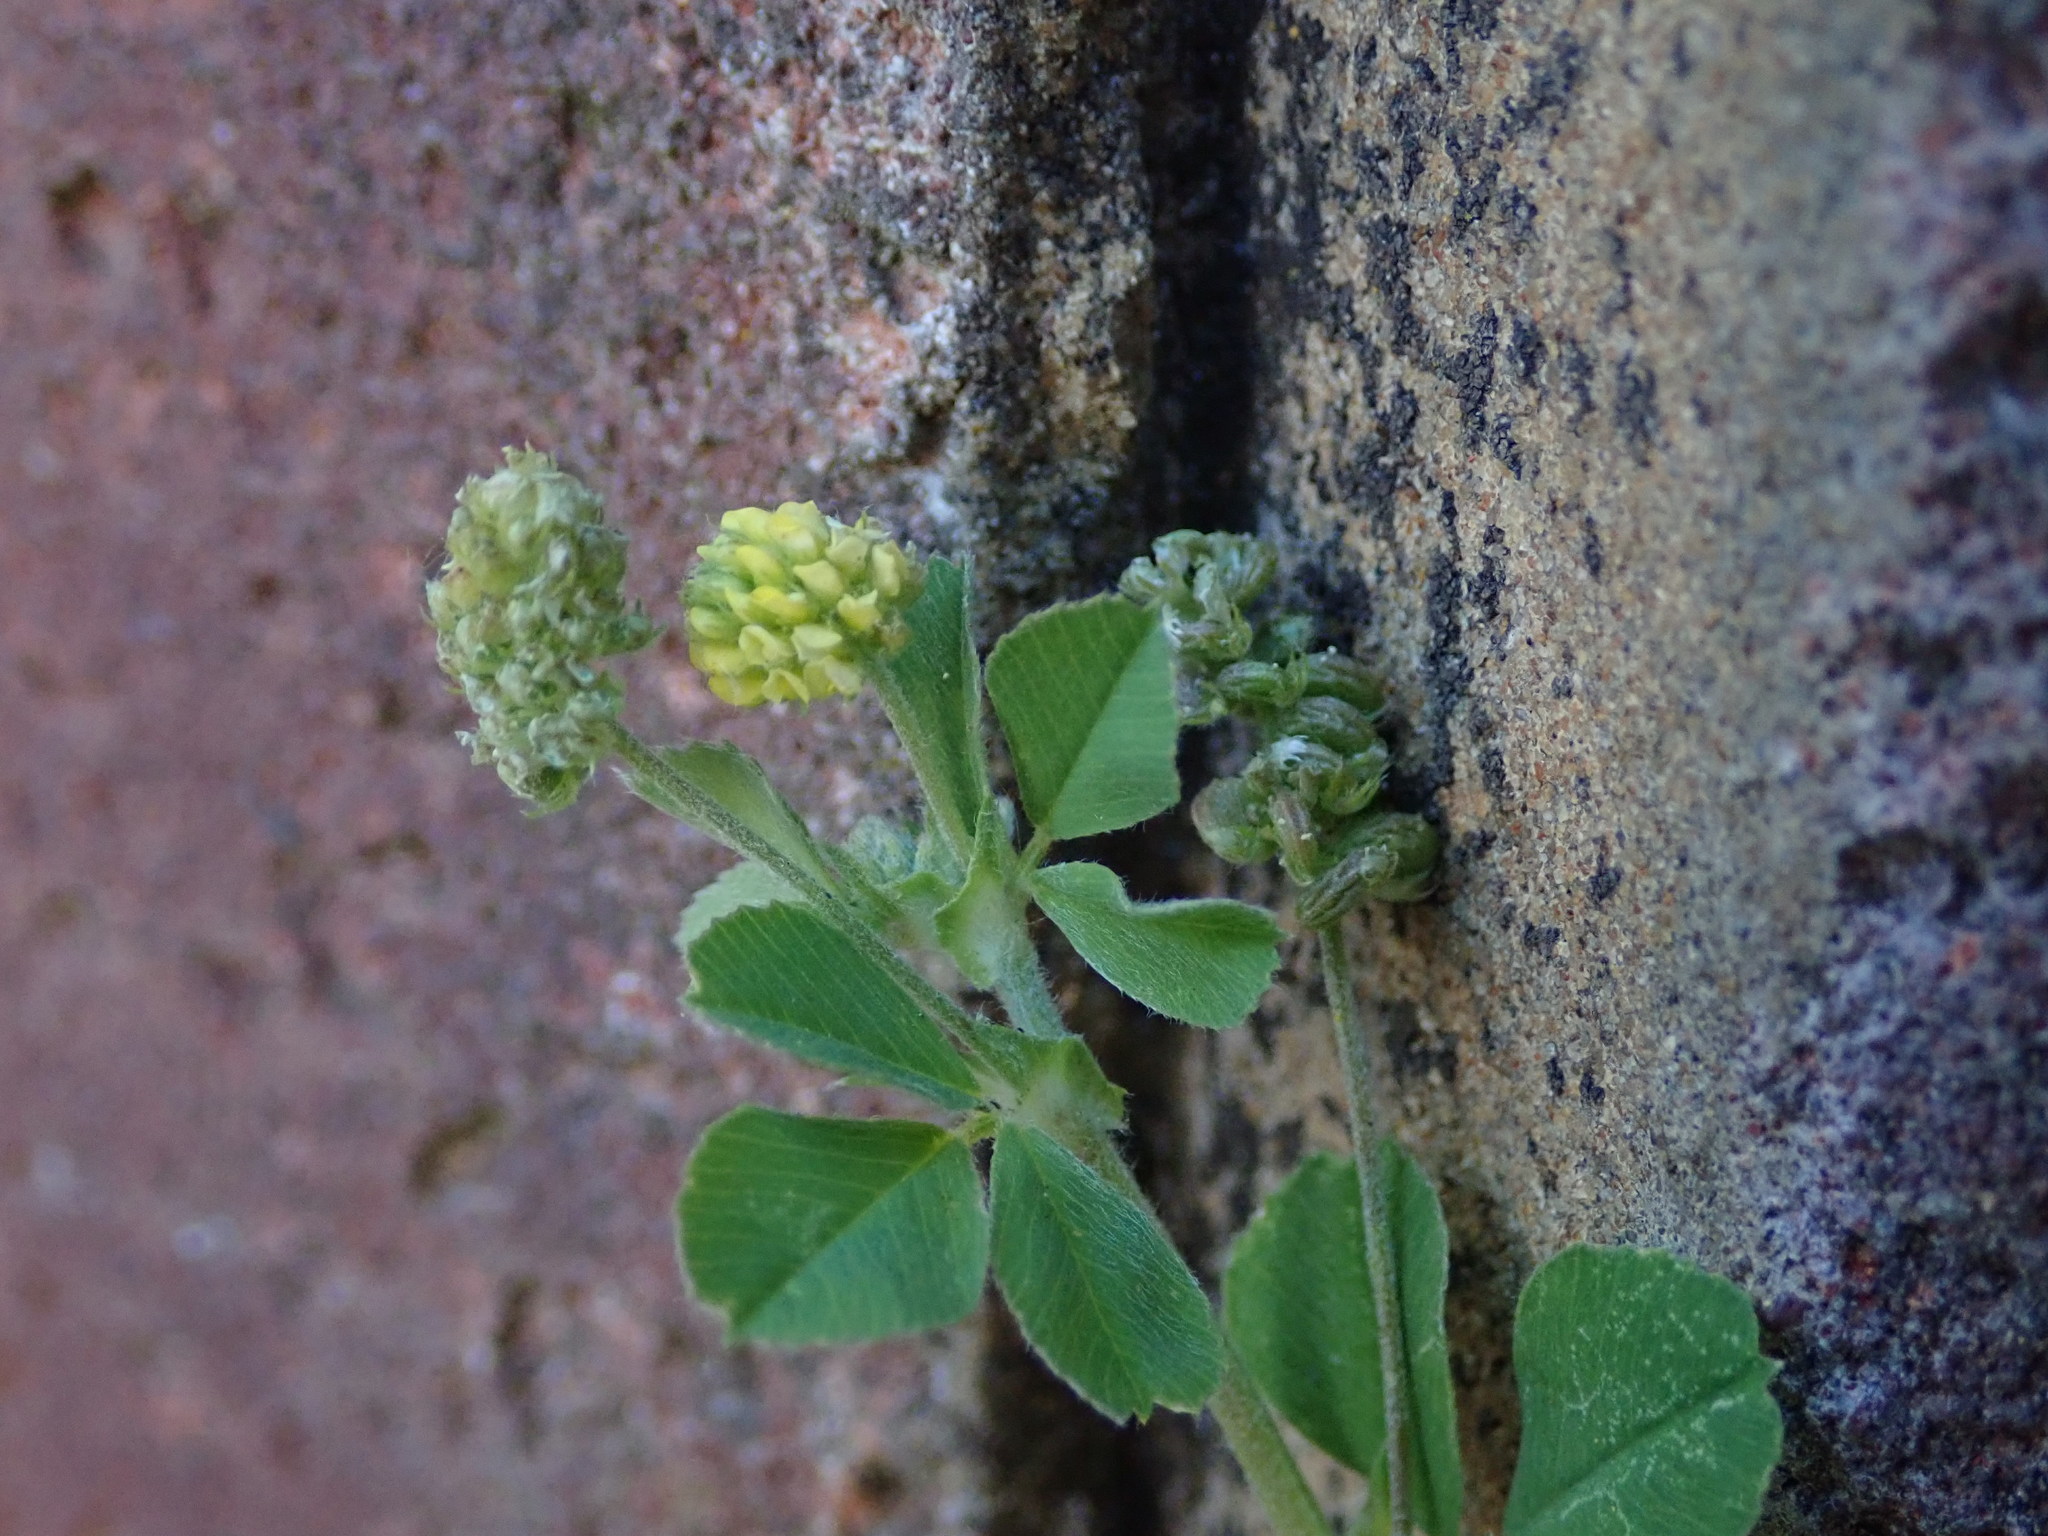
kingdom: Plantae
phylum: Tracheophyta
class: Magnoliopsida
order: Fabales
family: Fabaceae
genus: Medicago
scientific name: Medicago lupulina
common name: Black medick
